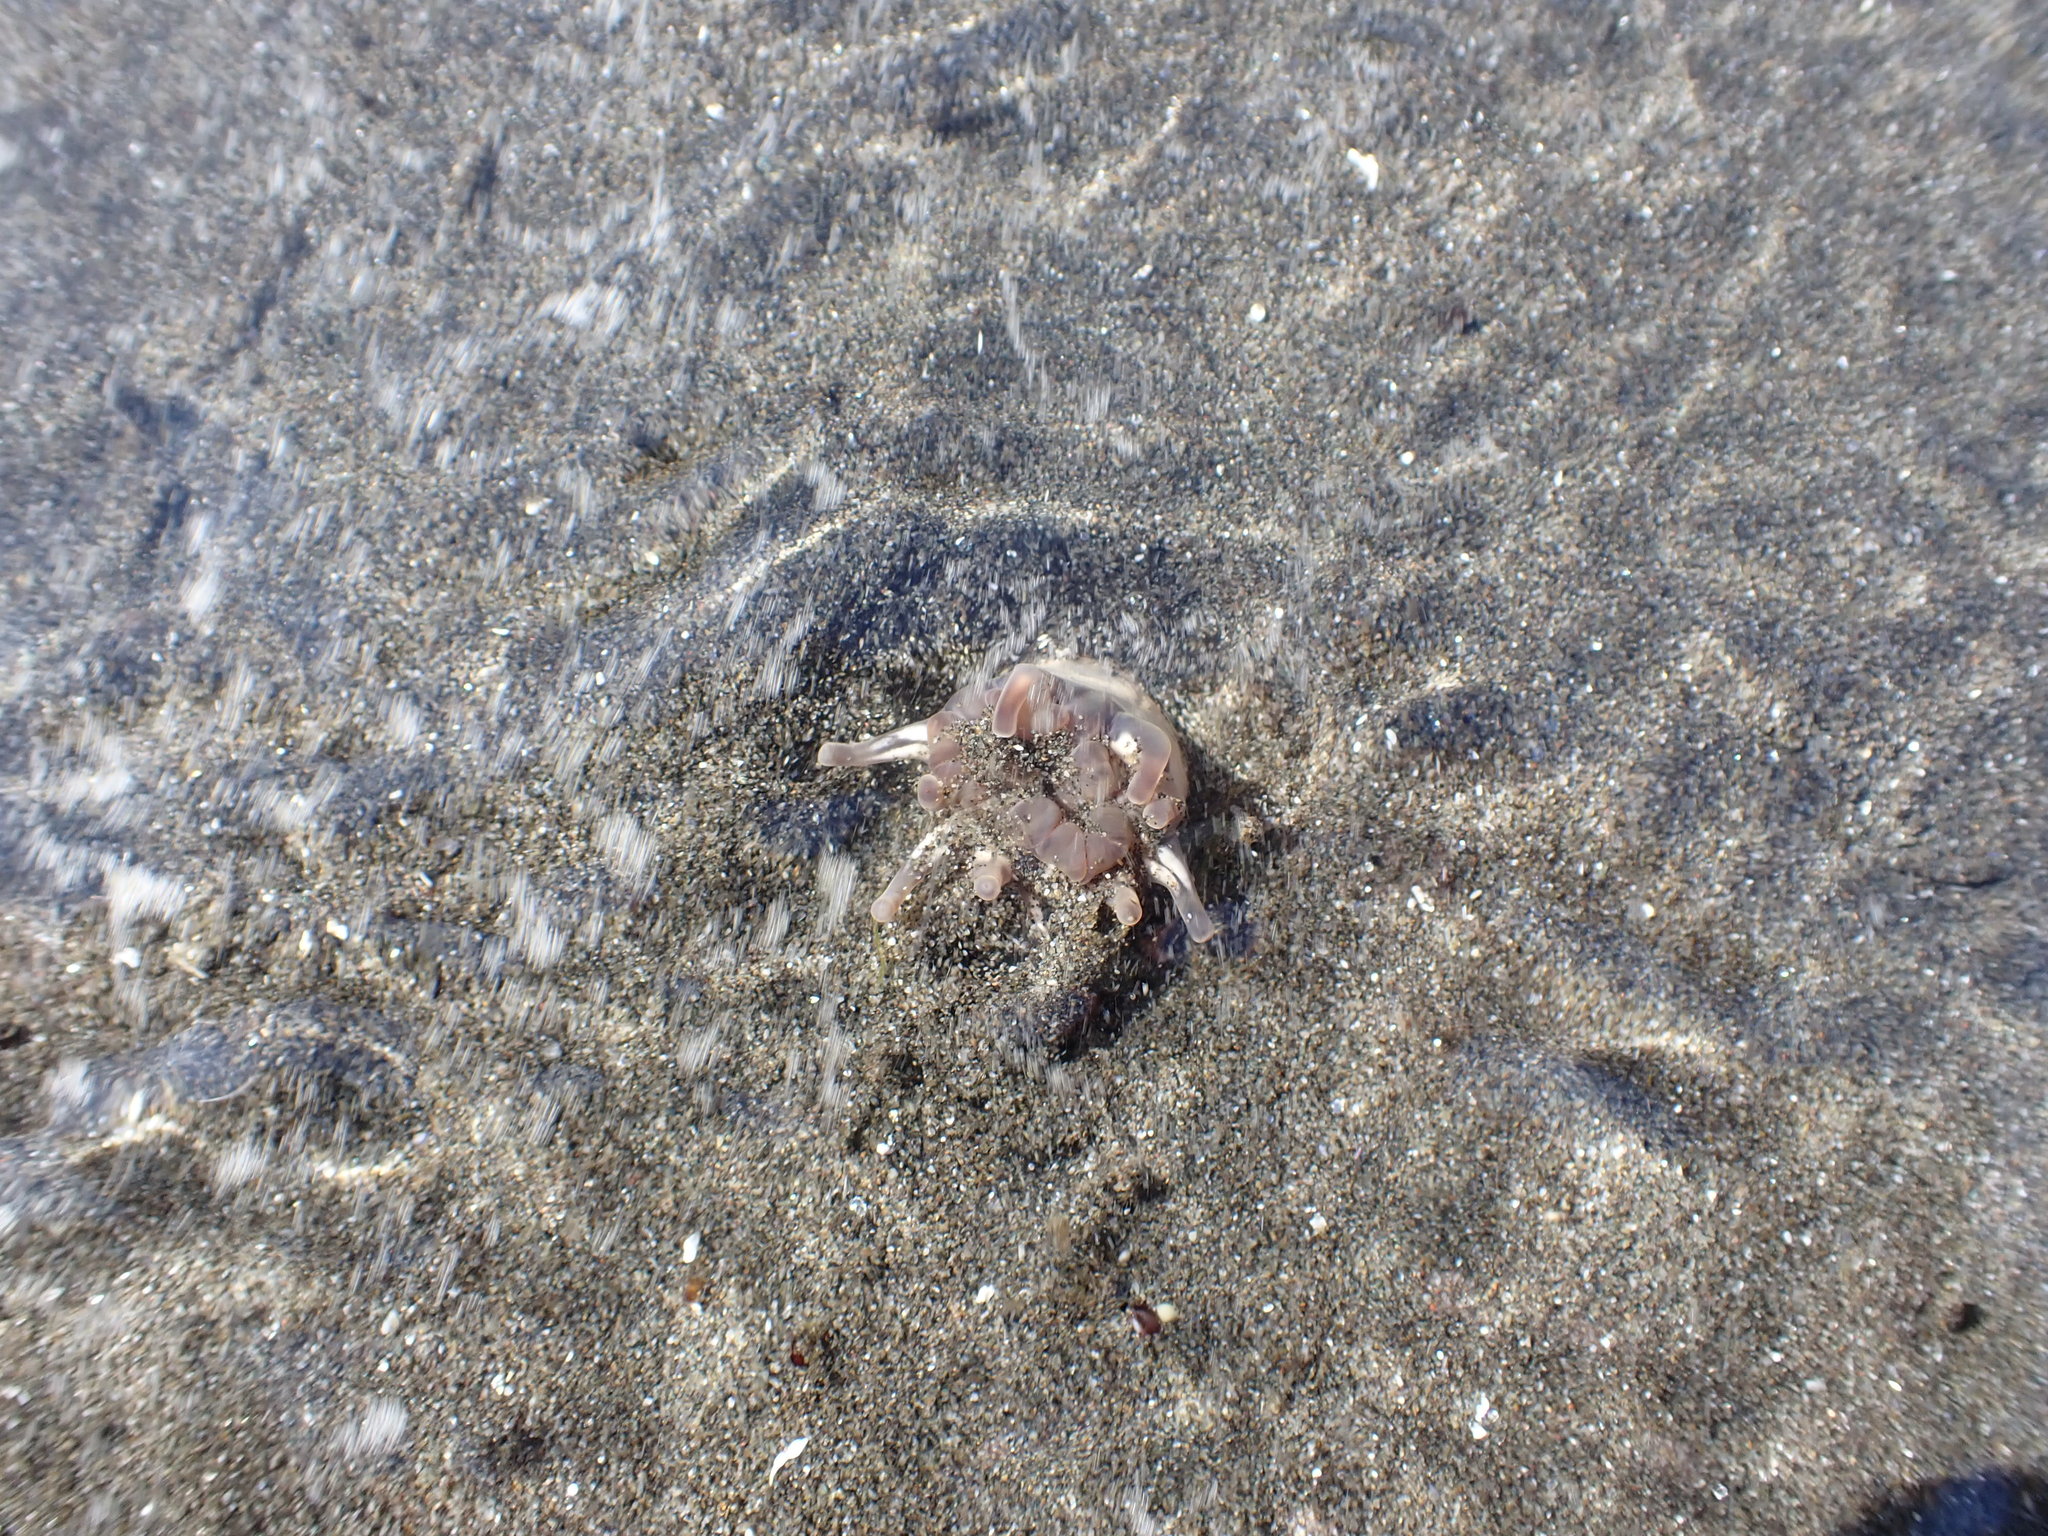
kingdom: Animalia
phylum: Cnidaria
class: Anthozoa
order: Actiniaria
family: Peachiidae
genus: Peachia
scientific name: Peachia quinquecapitata
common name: Twelve-tentacled parasitic anemone
